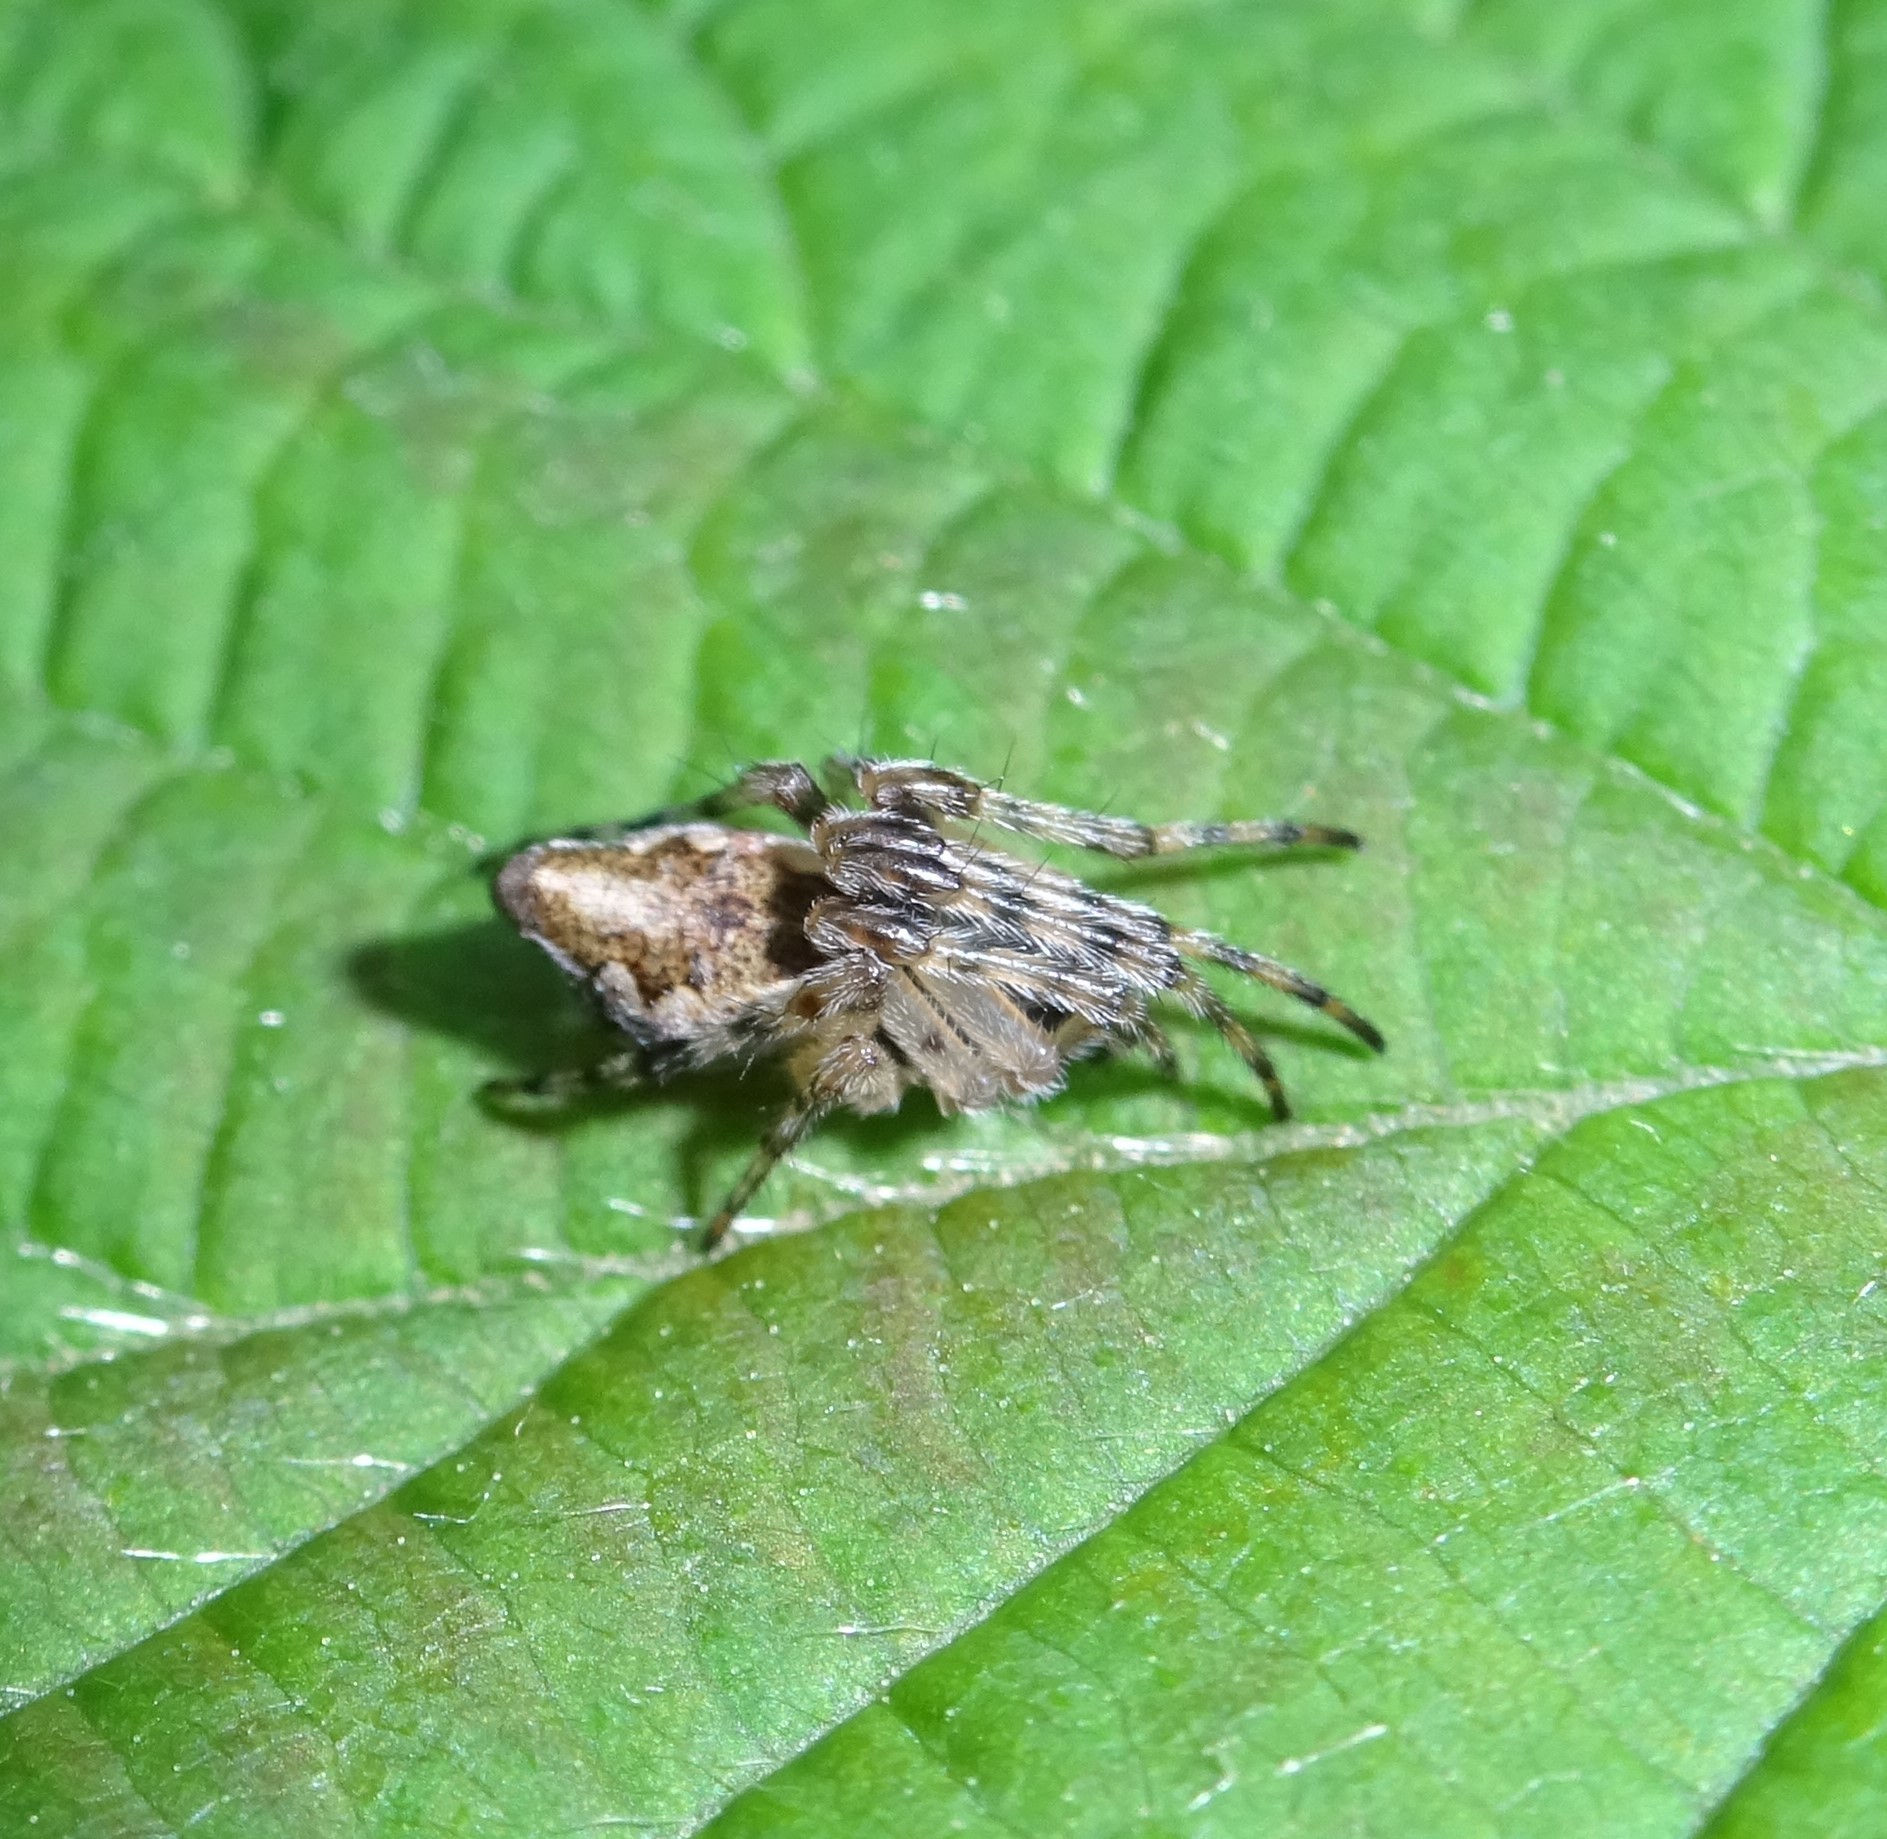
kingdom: Animalia
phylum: Arthropoda
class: Arachnida
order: Araneae
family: Araneidae
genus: Cyclosa
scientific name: Cyclosa conica
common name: Conical trashline orbweaver
